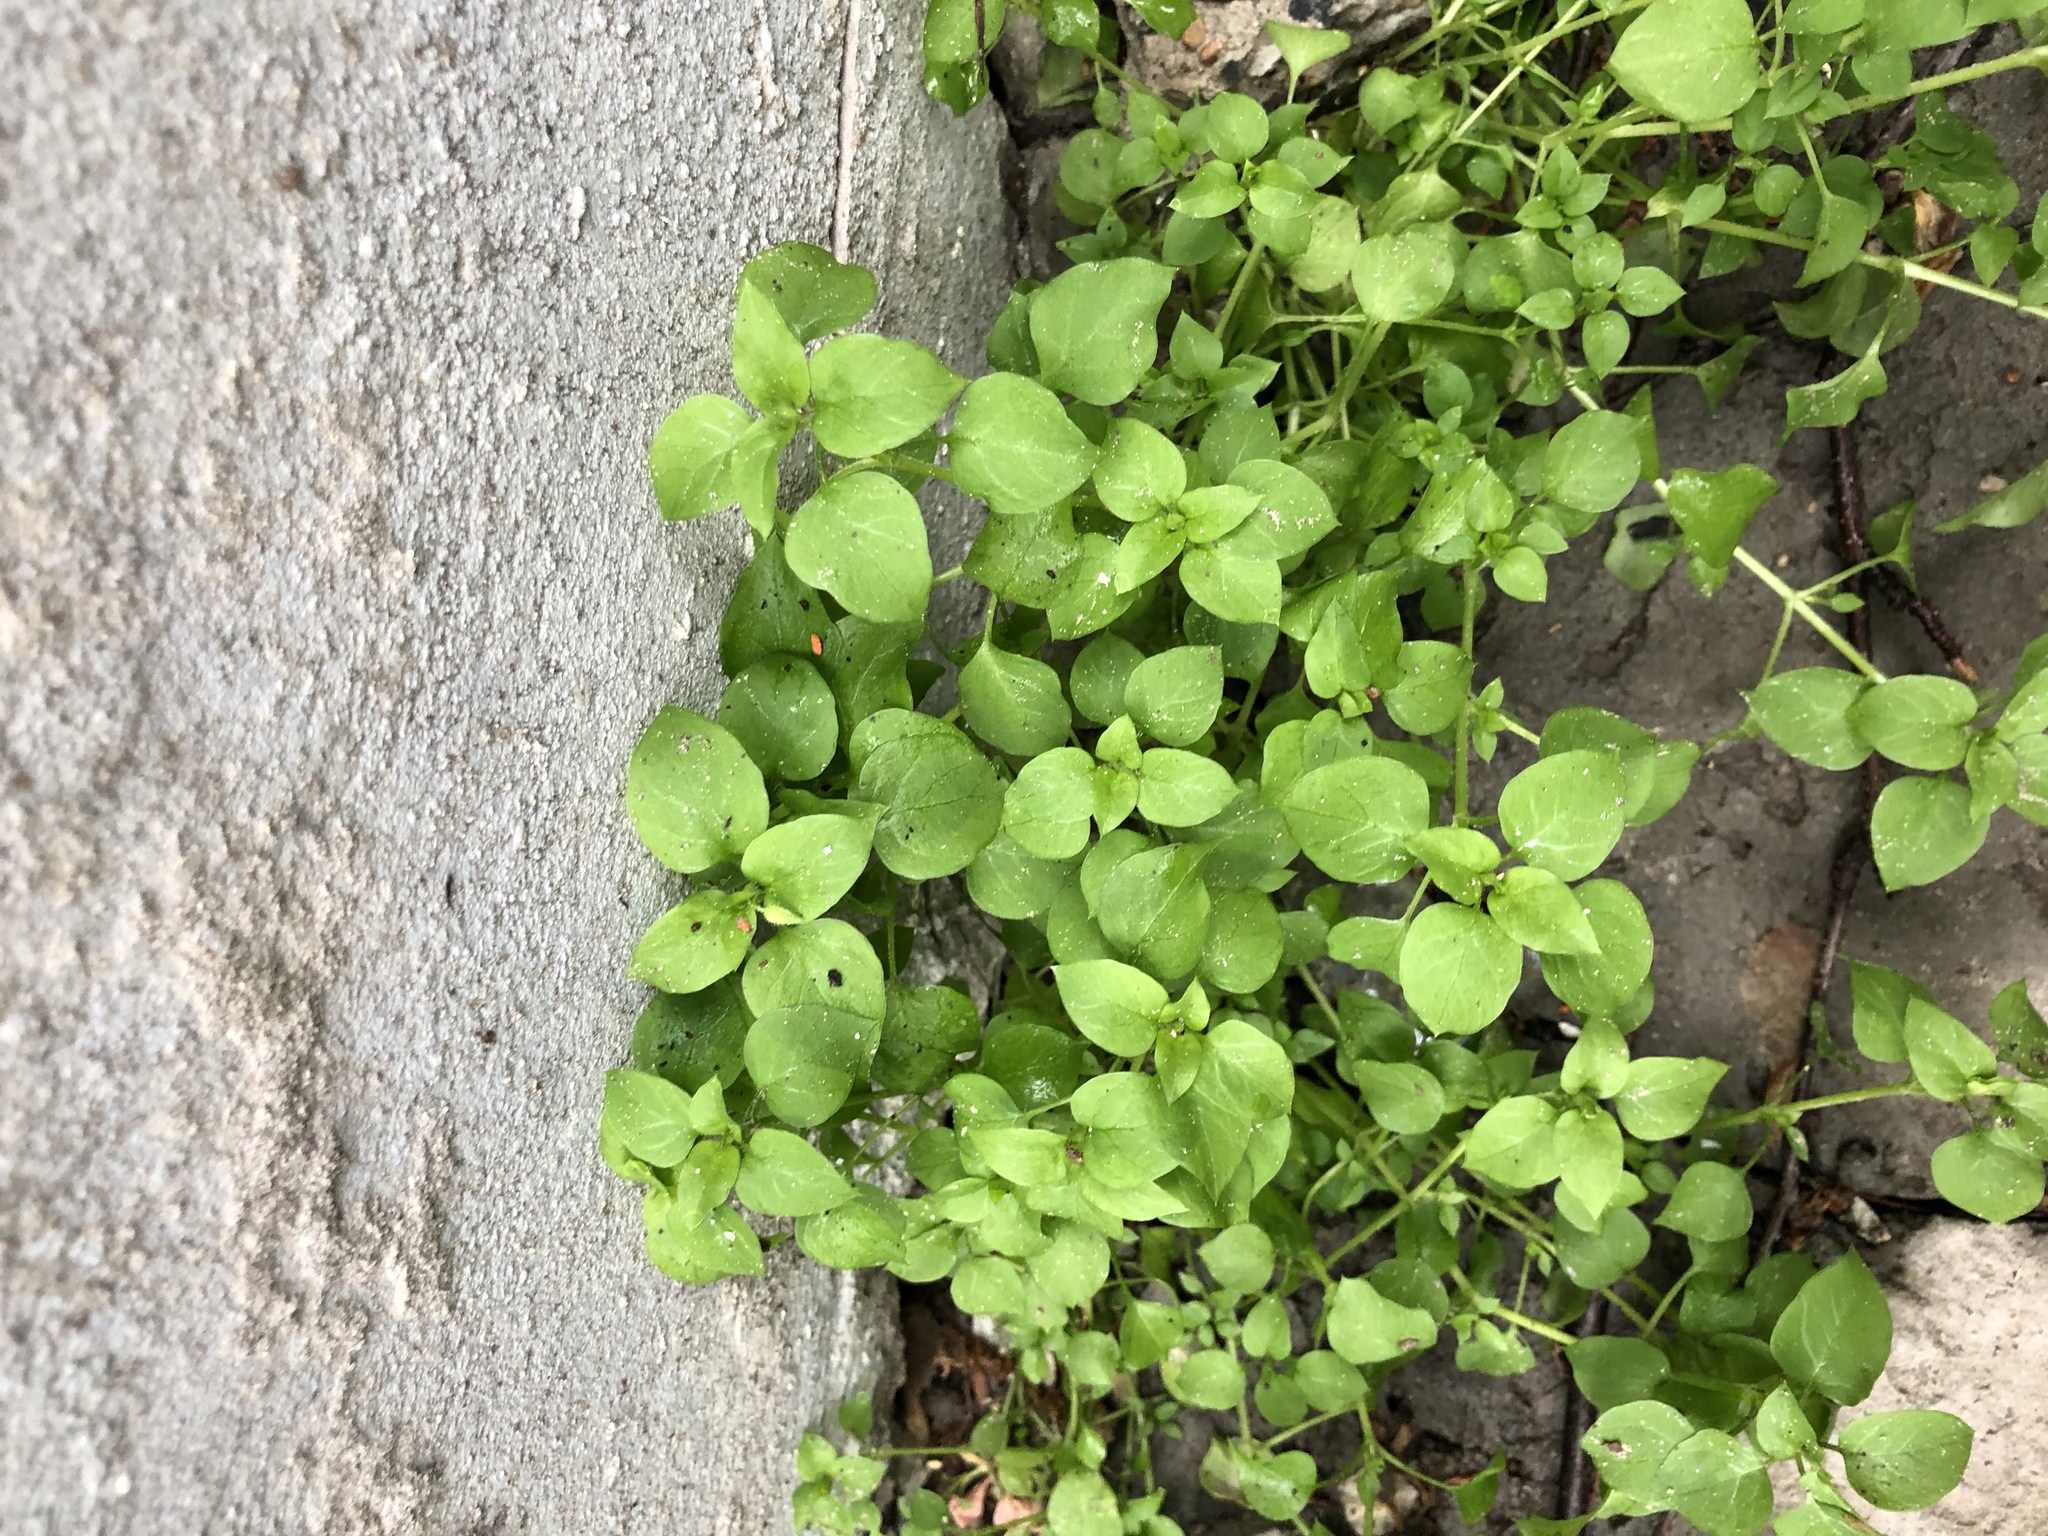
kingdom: Plantae
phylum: Tracheophyta
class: Magnoliopsida
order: Caryophyllales
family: Caryophyllaceae
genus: Stellaria
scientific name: Stellaria media
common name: Common chickweed
